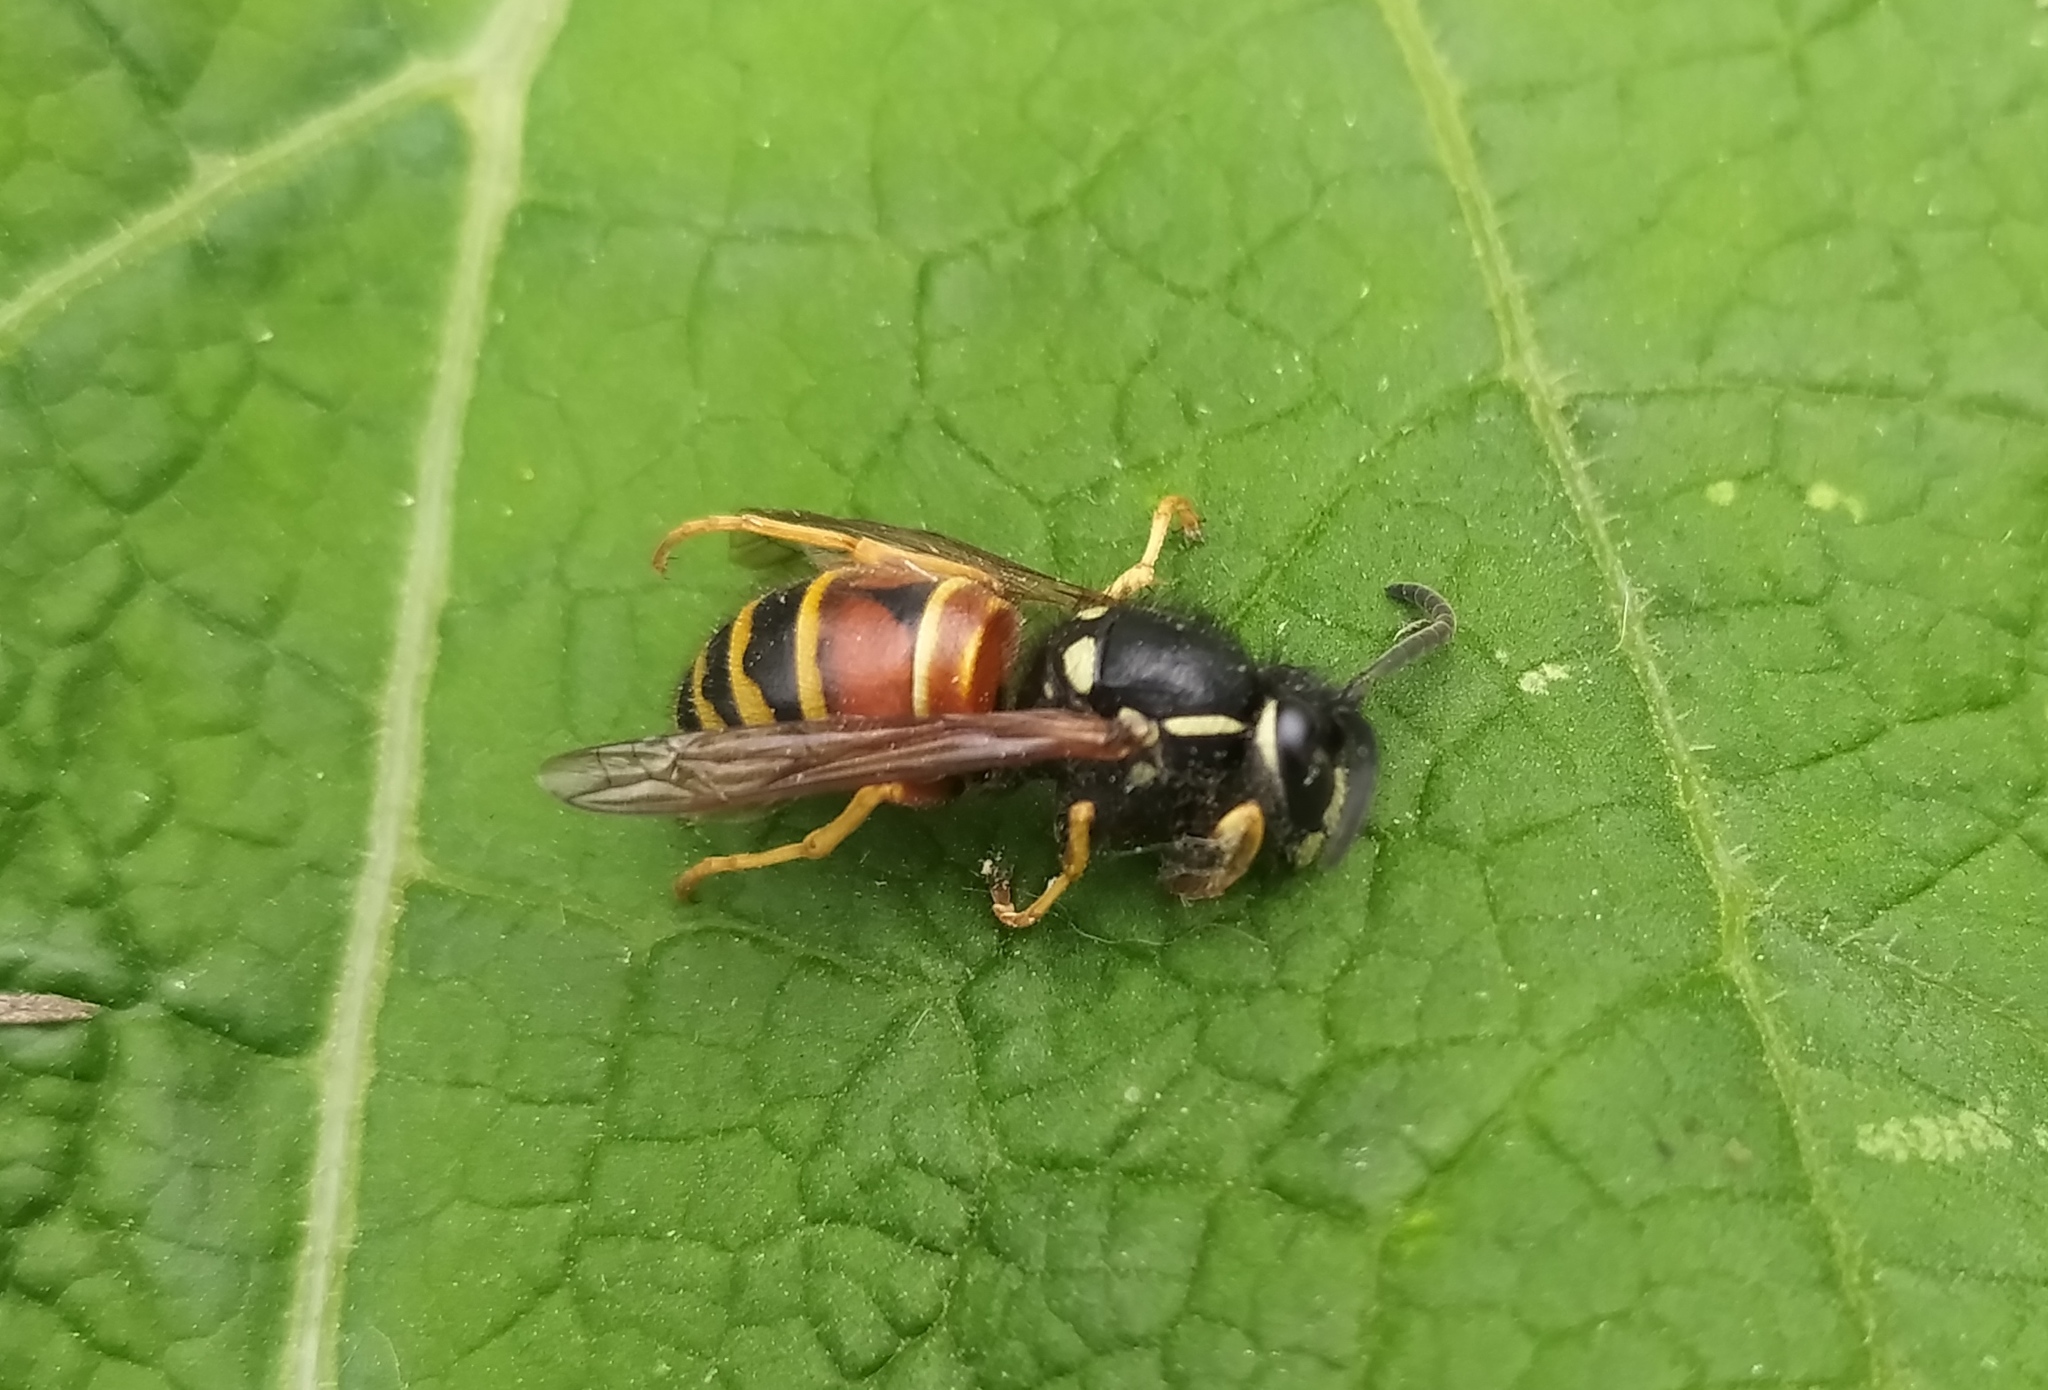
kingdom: Animalia
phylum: Arthropoda
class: Insecta
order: Hymenoptera
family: Vespidae
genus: Vespula
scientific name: Vespula rufa
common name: Red wasp
